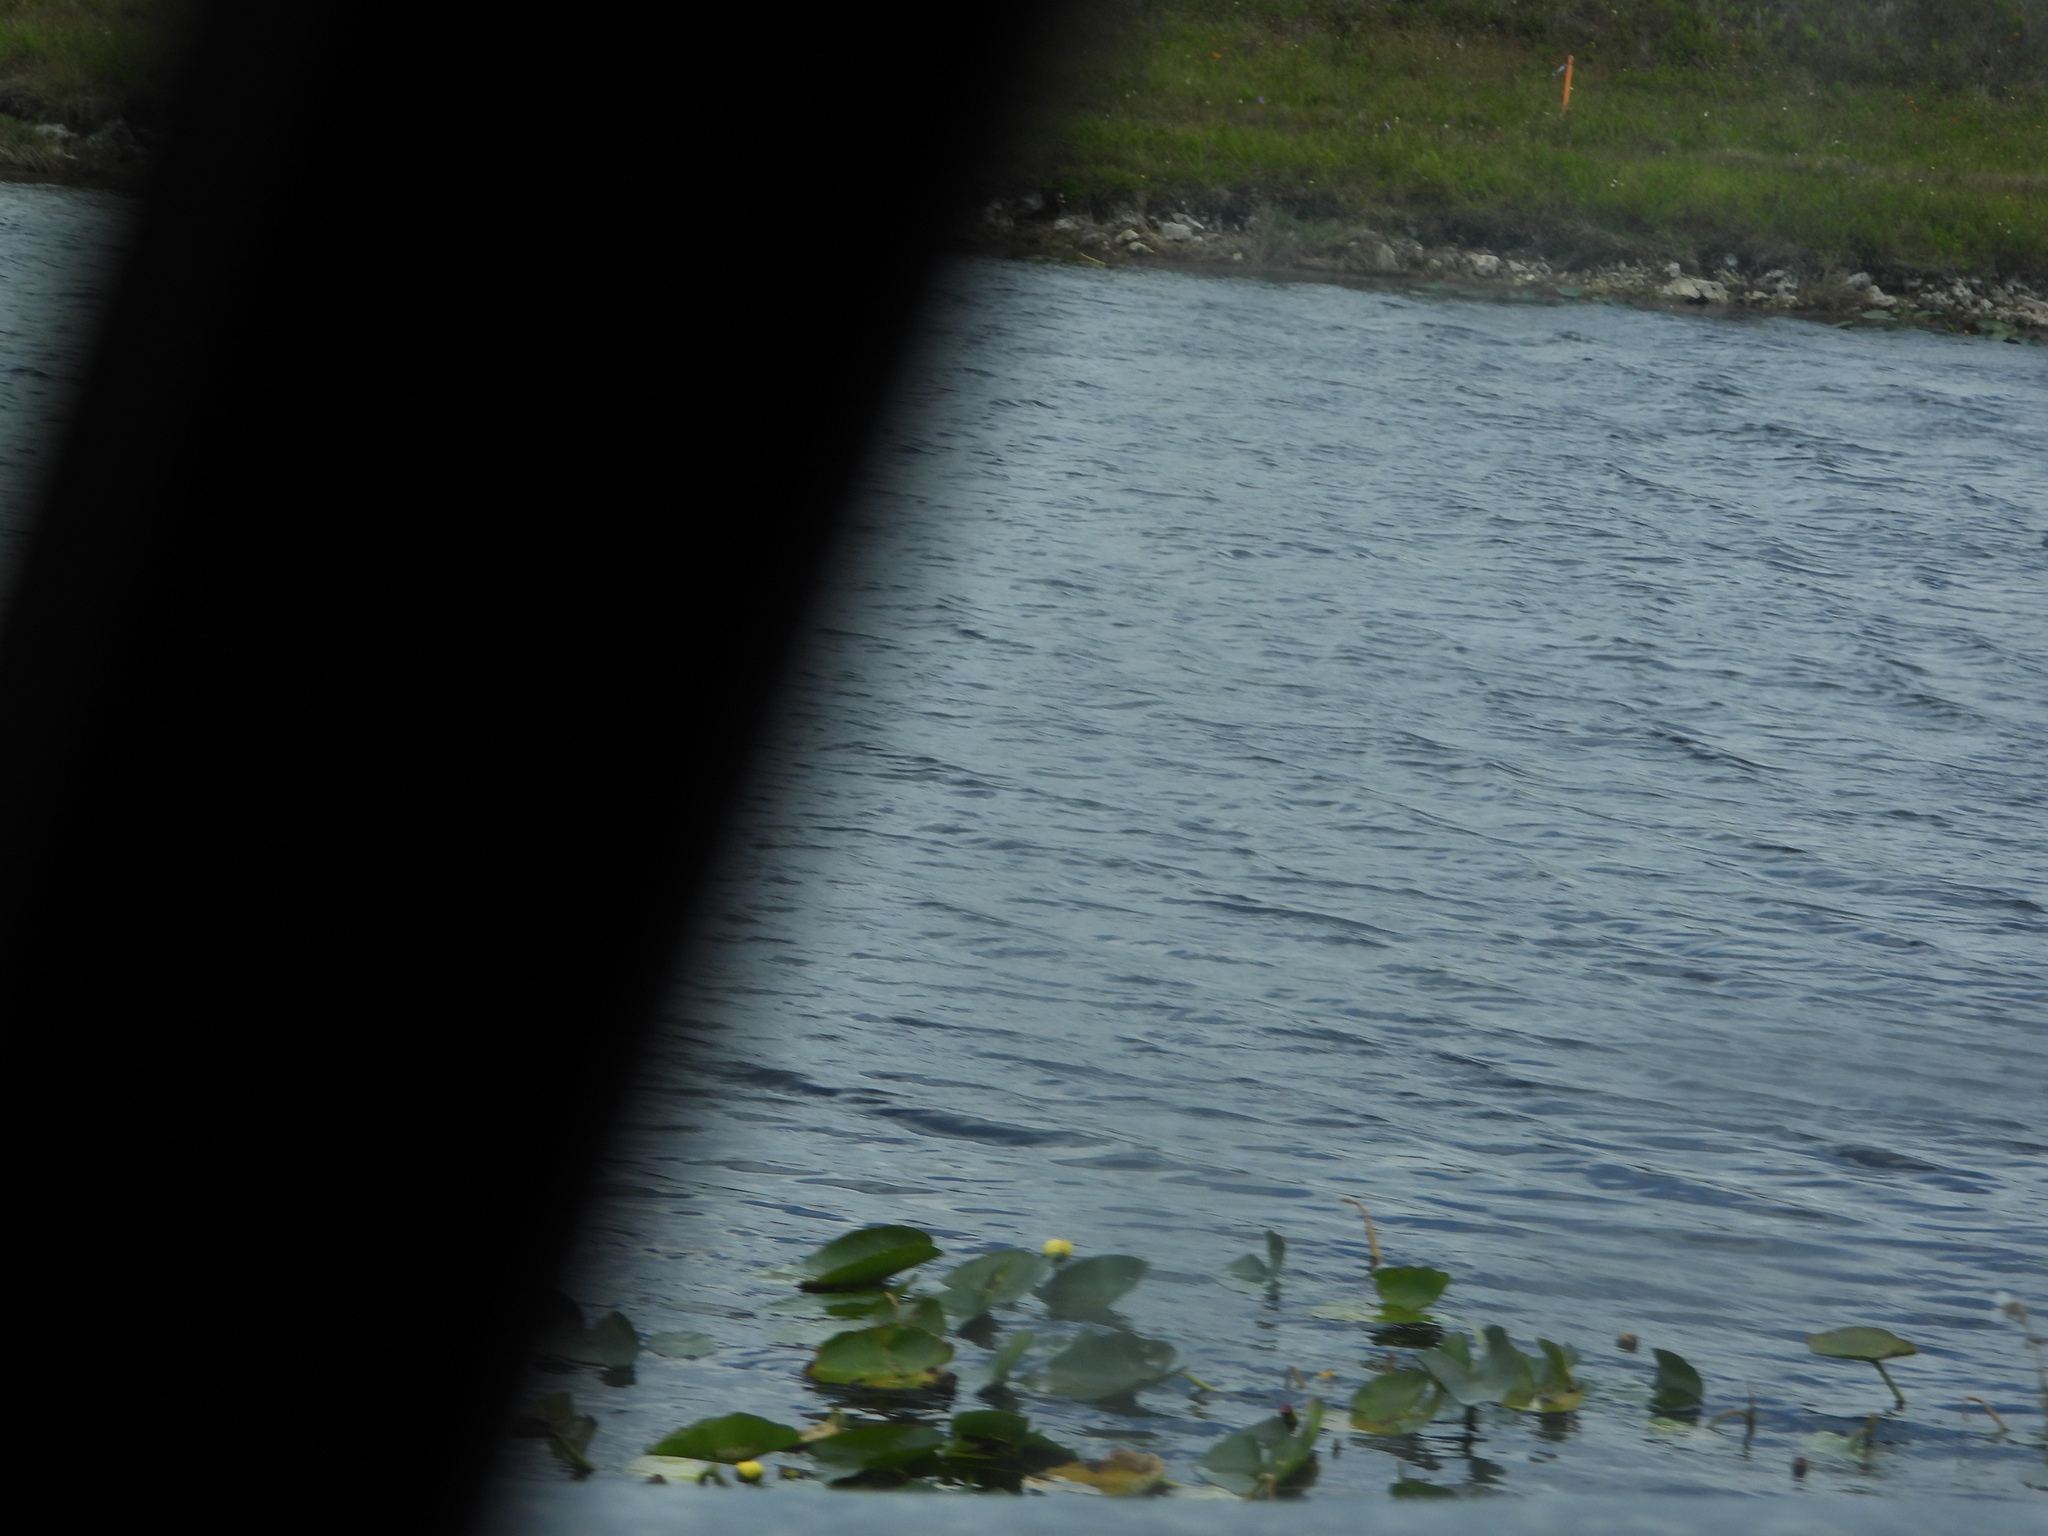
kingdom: Plantae
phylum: Tracheophyta
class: Magnoliopsida
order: Nymphaeales
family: Nymphaeaceae
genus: Nuphar
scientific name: Nuphar advena
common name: Spatter-dock
